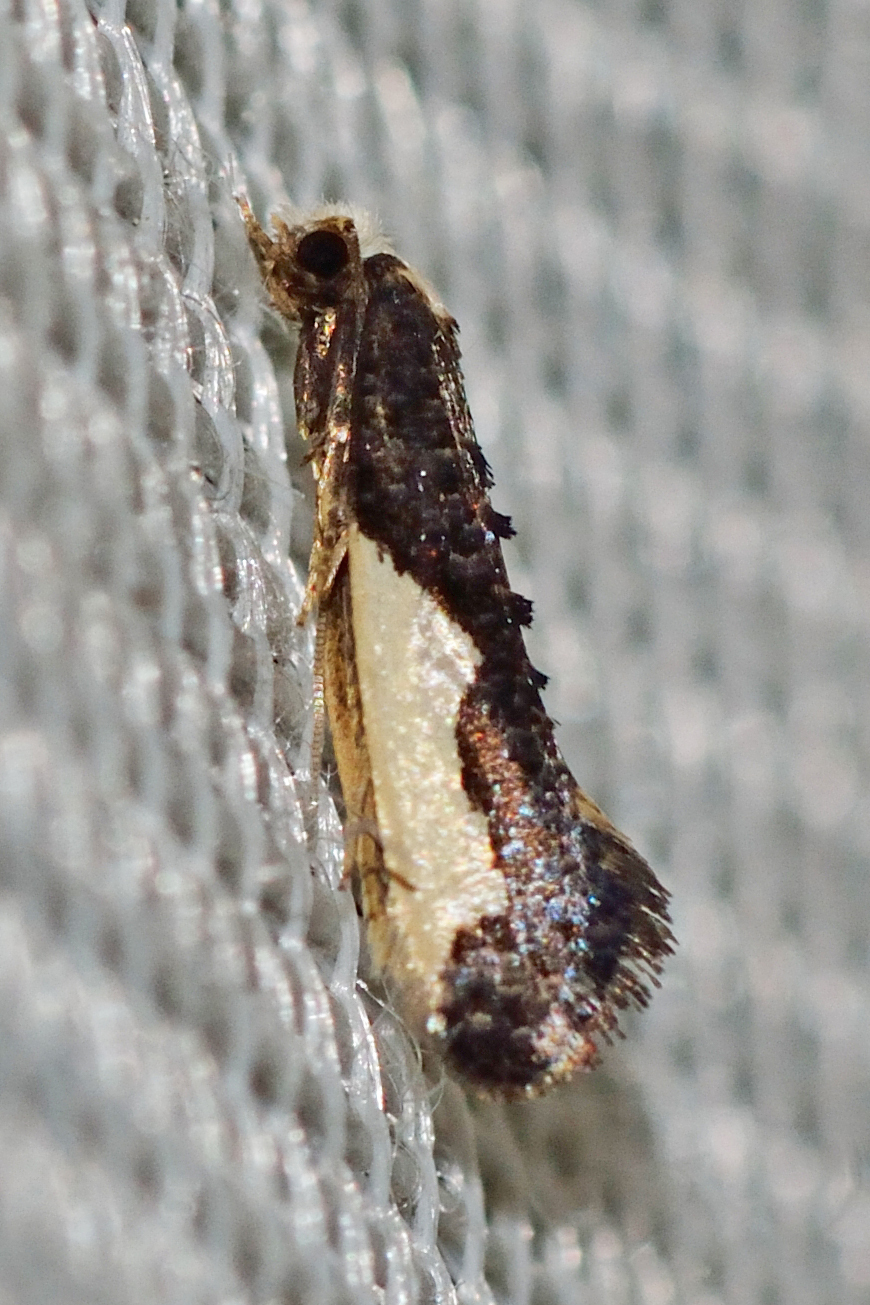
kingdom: Animalia
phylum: Arthropoda
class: Insecta
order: Lepidoptera
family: Tineidae
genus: Monopis
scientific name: Monopis monachella
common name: Moth
